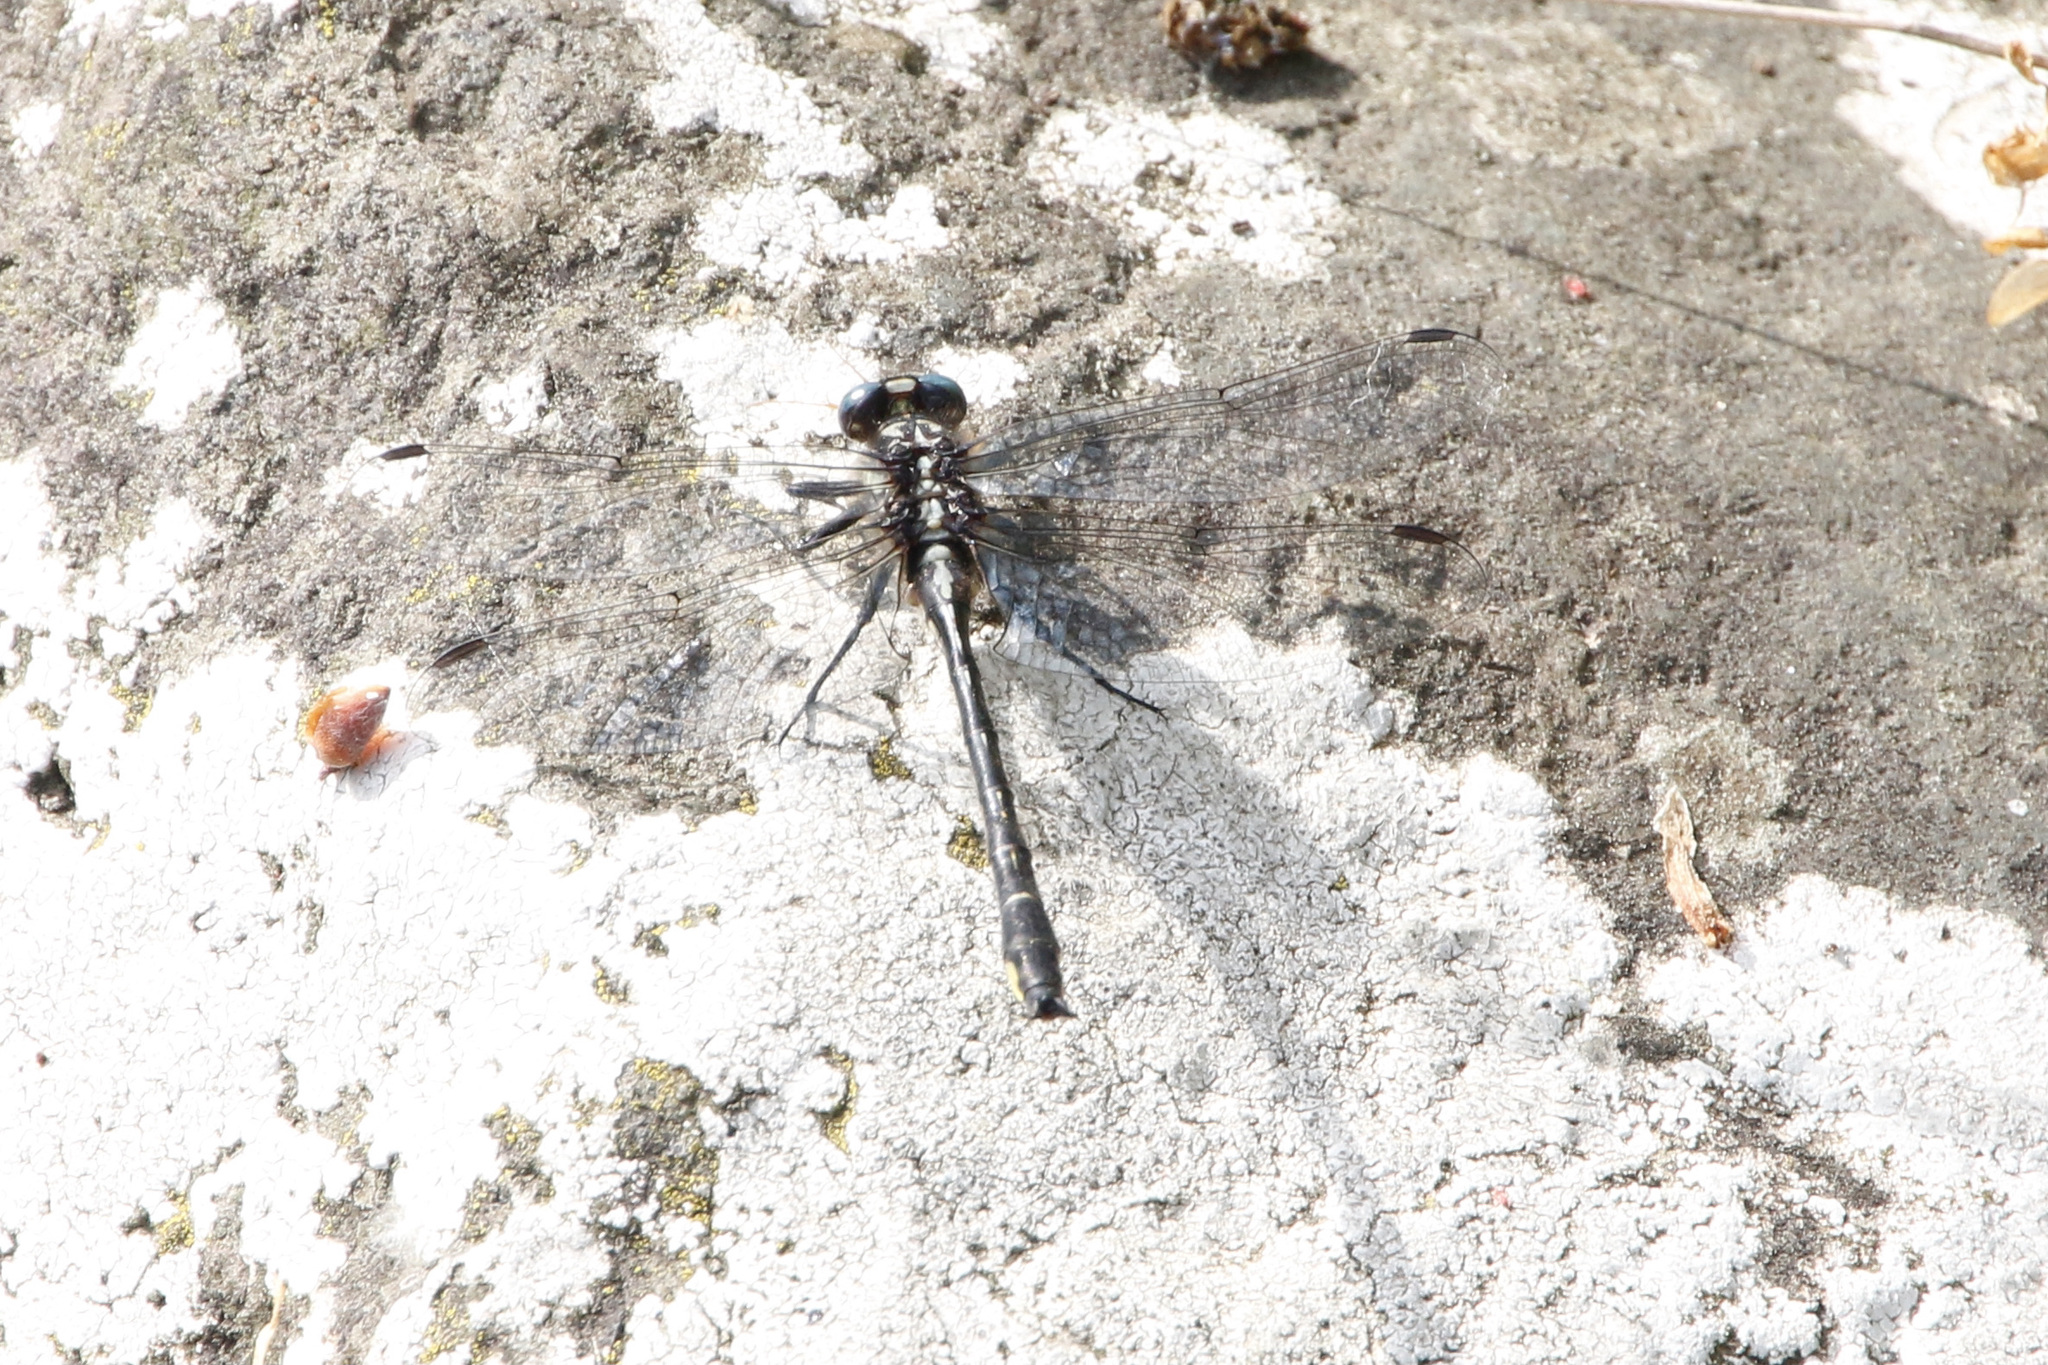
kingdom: Animalia
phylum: Arthropoda
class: Insecta
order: Odonata
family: Gomphidae
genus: Phanogomphus
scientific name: Phanogomphus quadricolor
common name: Rapids clubtail
